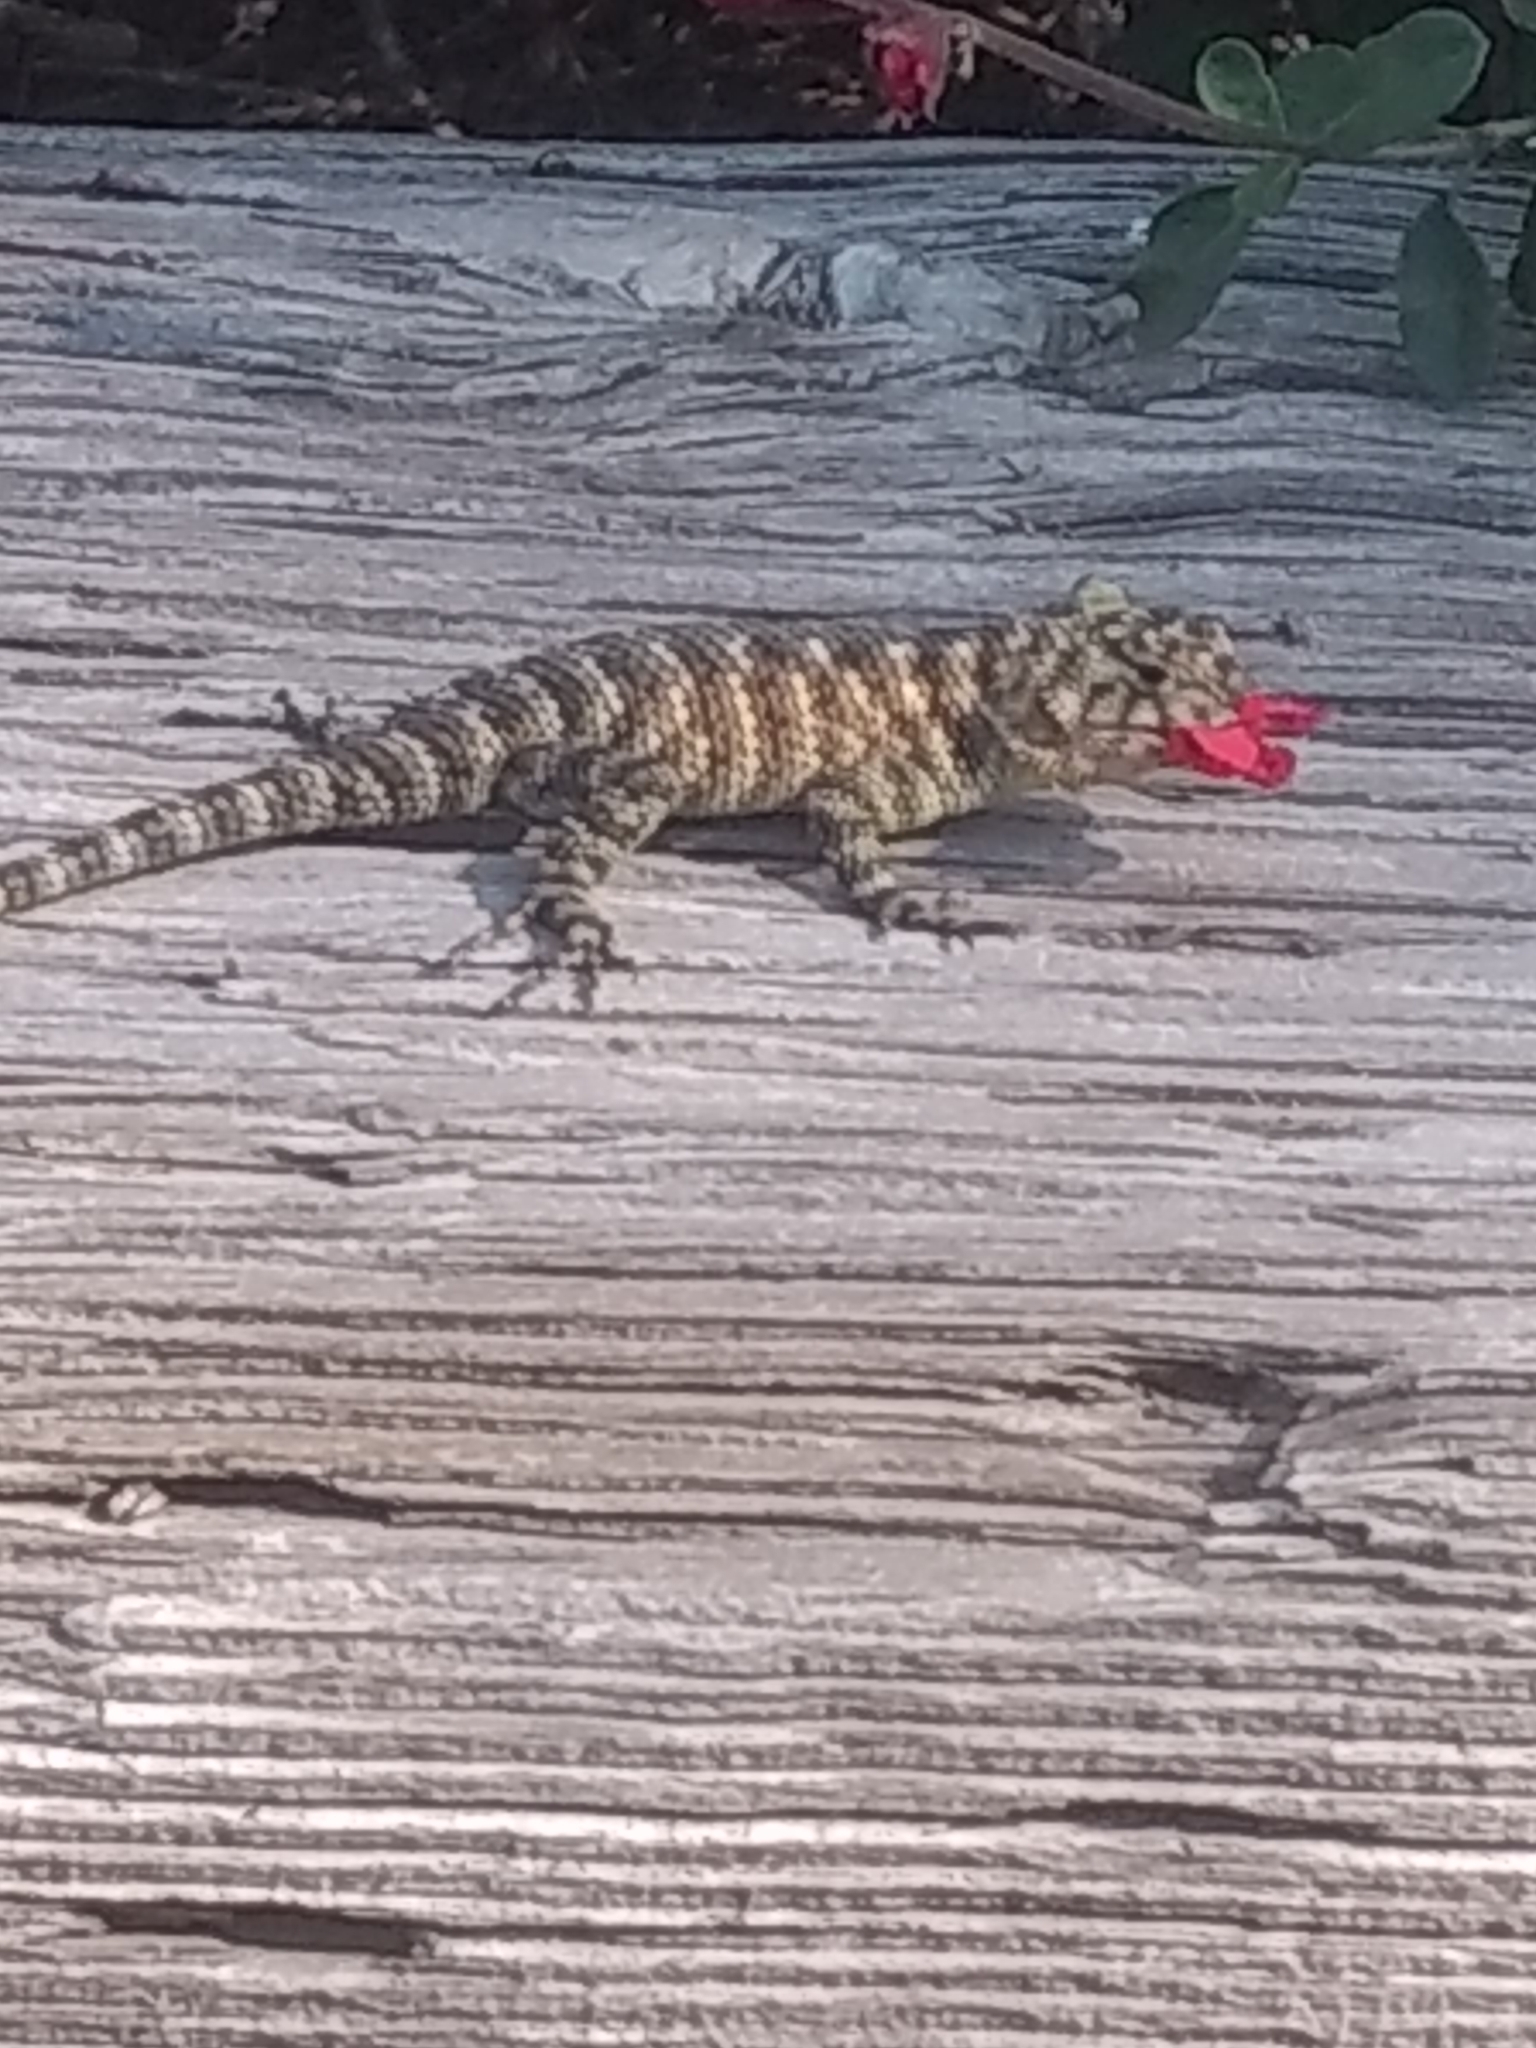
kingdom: Animalia
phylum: Chordata
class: Squamata
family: Phrynosomatidae
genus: Sceloporus
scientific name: Sceloporus orcutti
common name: Granite spiny lizard
